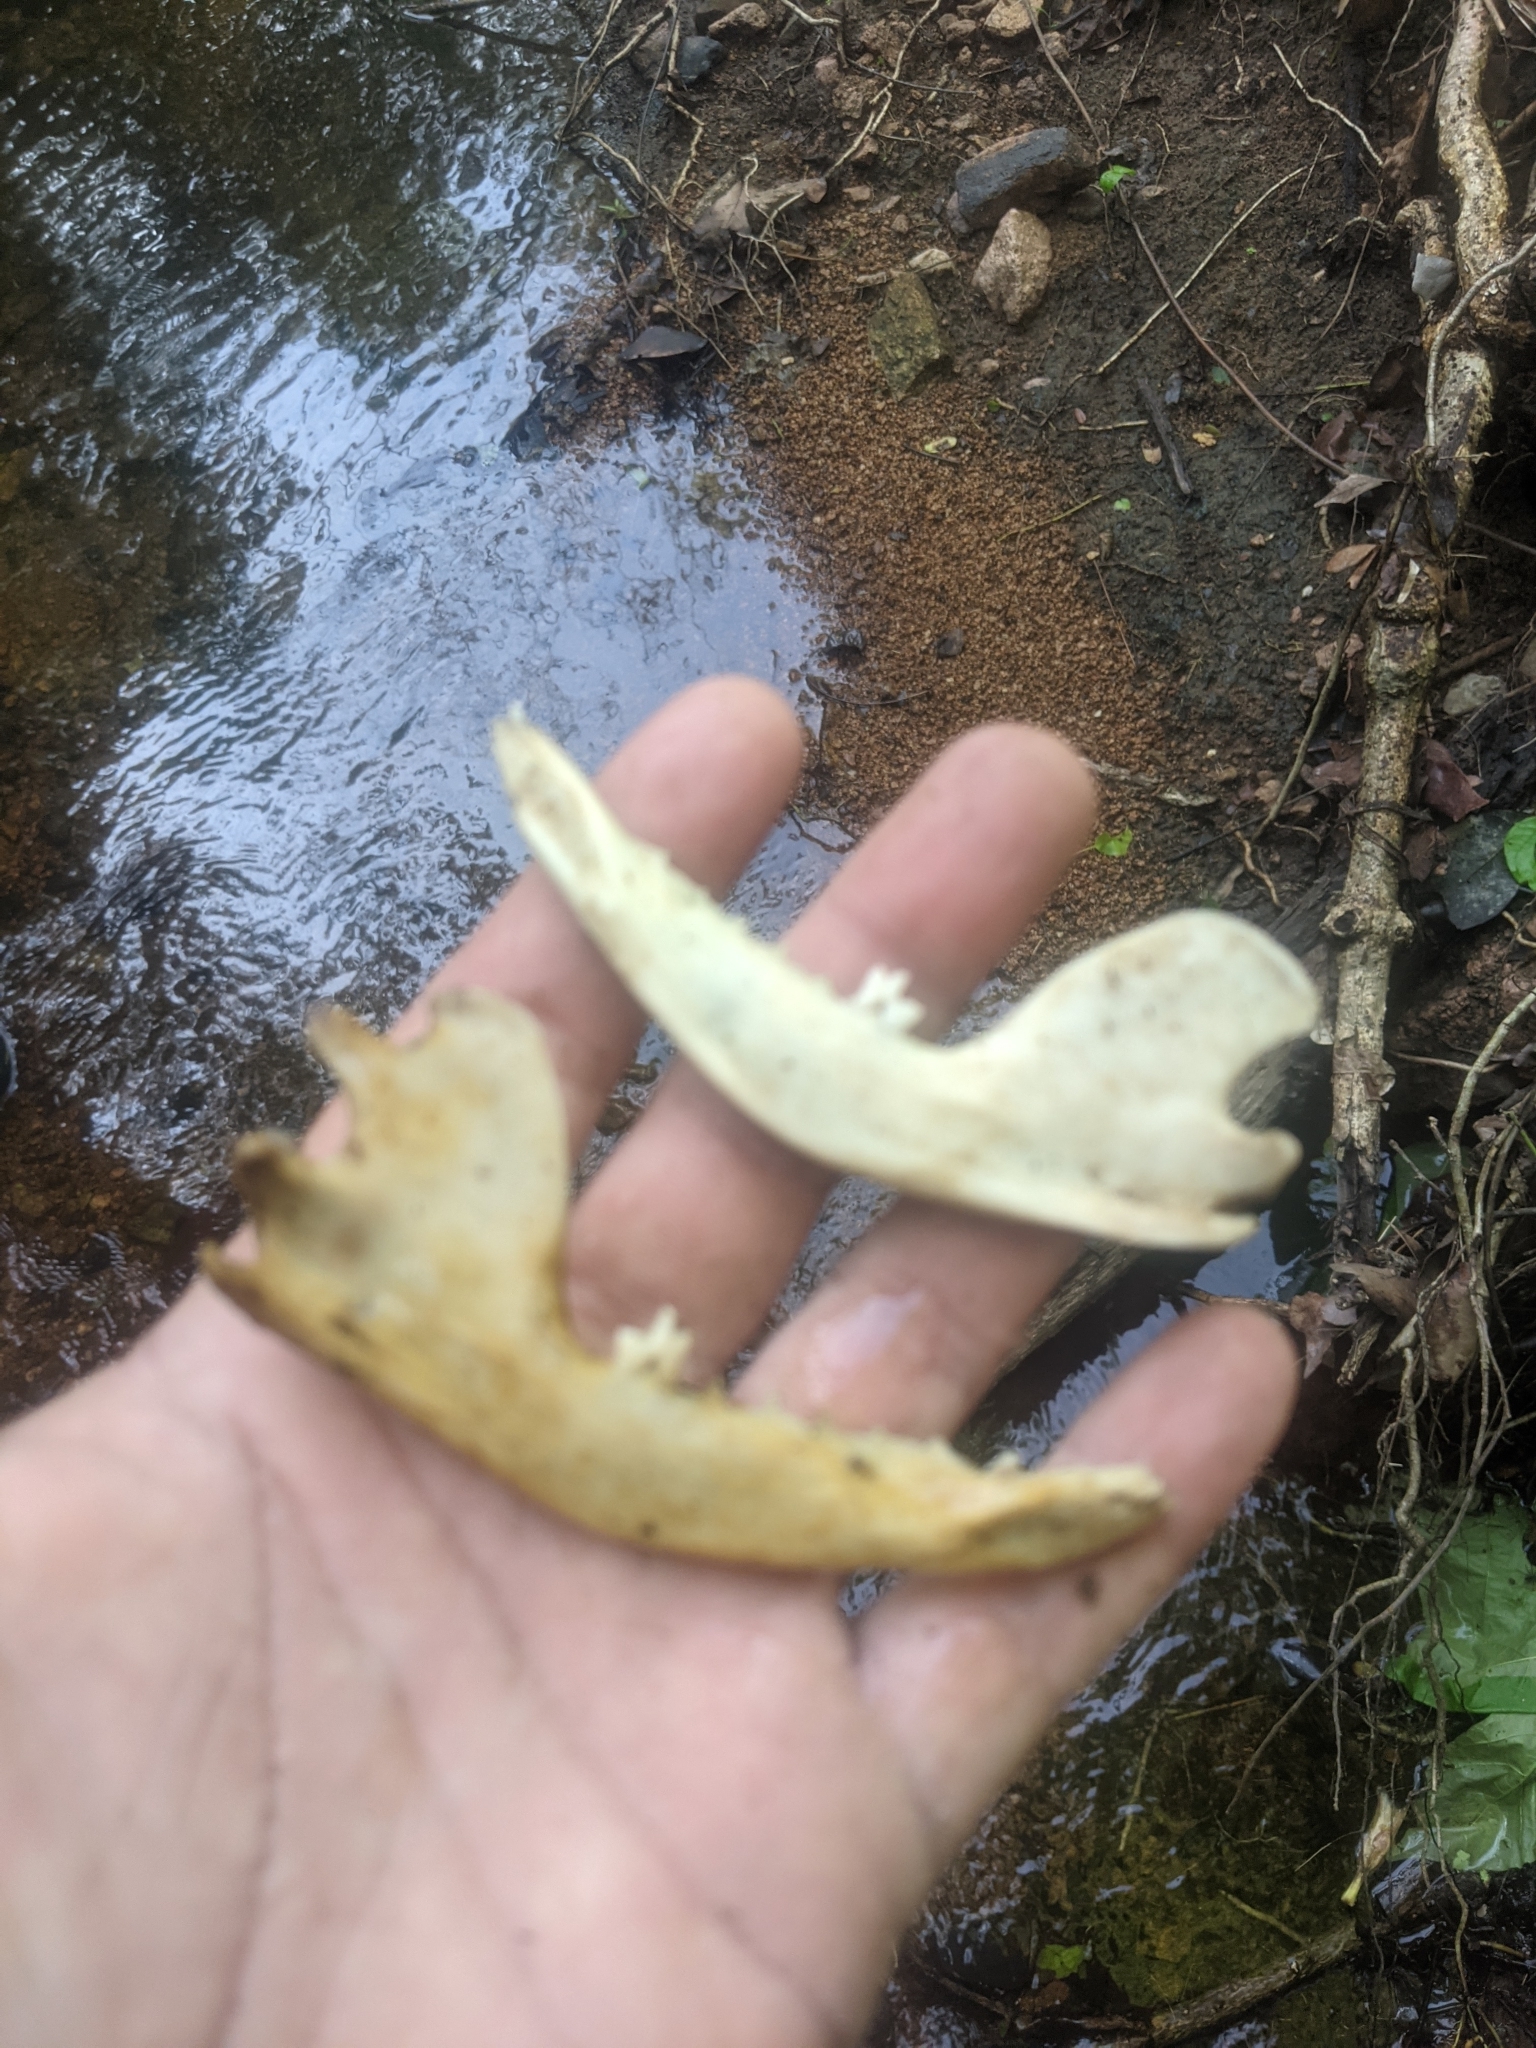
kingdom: Animalia
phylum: Chordata
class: Mammalia
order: Didelphimorphia
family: Didelphidae
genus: Didelphis
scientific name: Didelphis virginiana
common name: Virginia opossum
